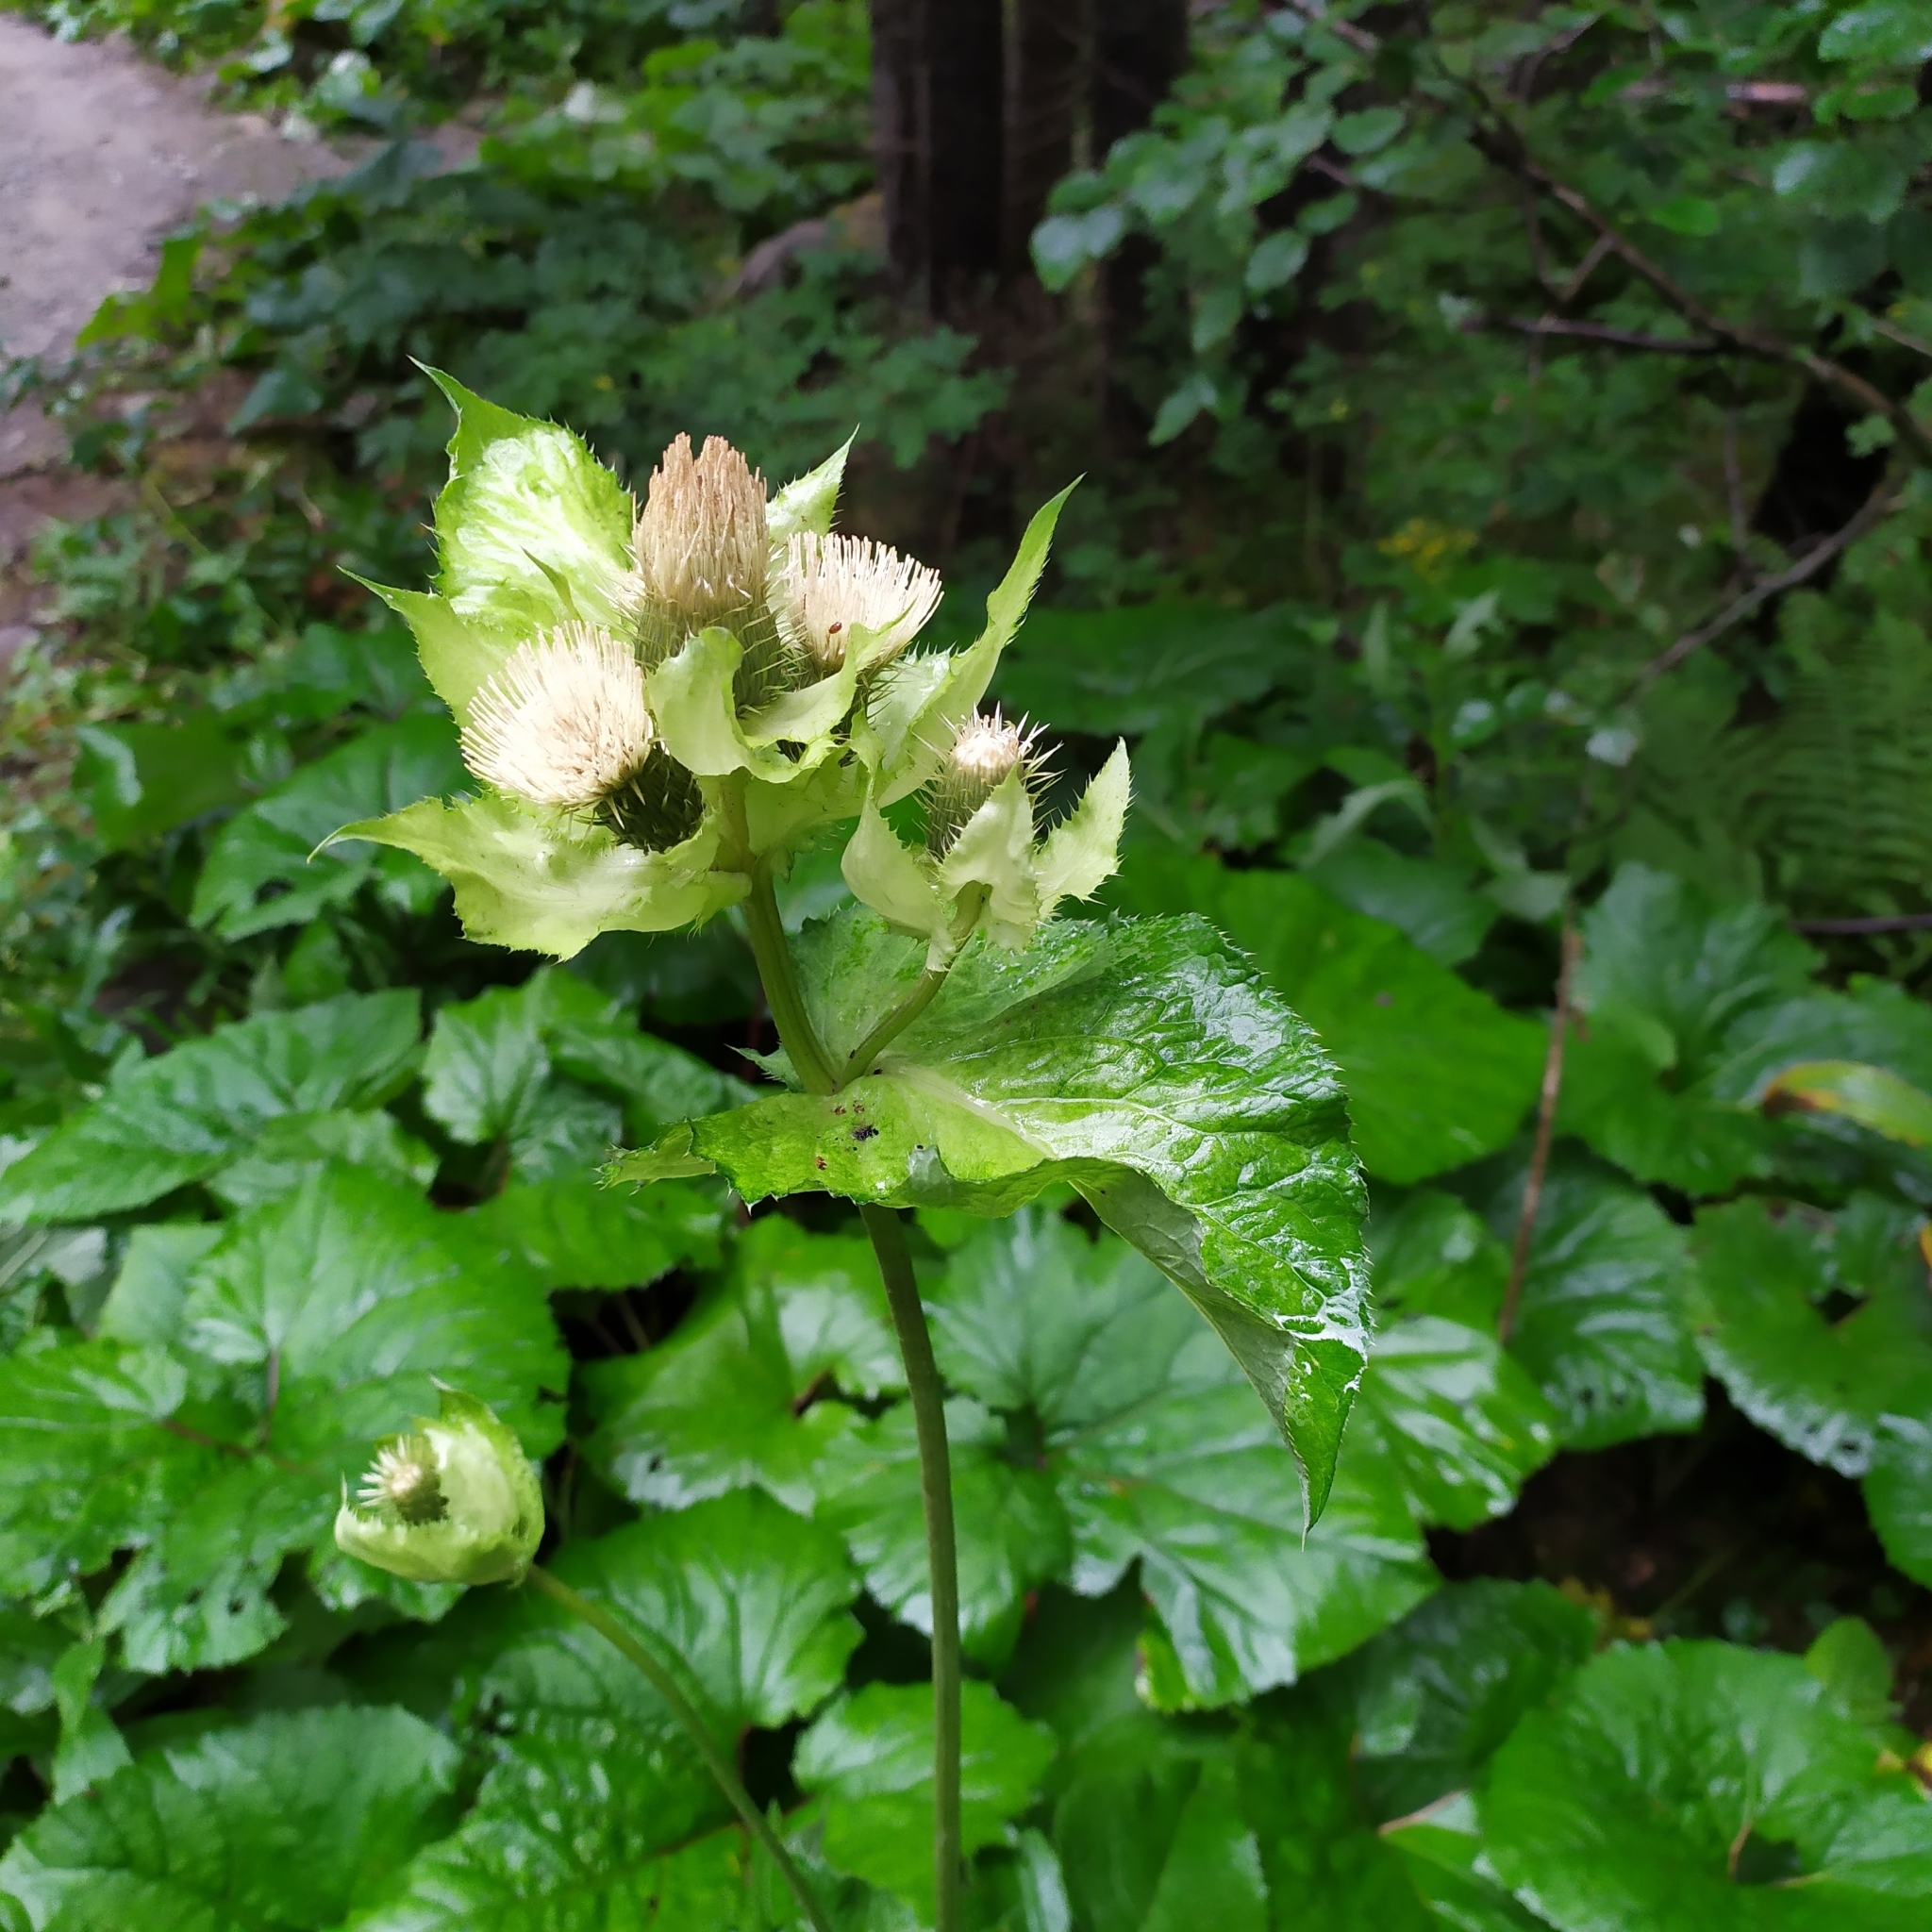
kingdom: Plantae
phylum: Tracheophyta
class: Magnoliopsida
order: Asterales
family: Asteraceae
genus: Cirsium
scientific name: Cirsium oleraceum
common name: Cabbage thistle
